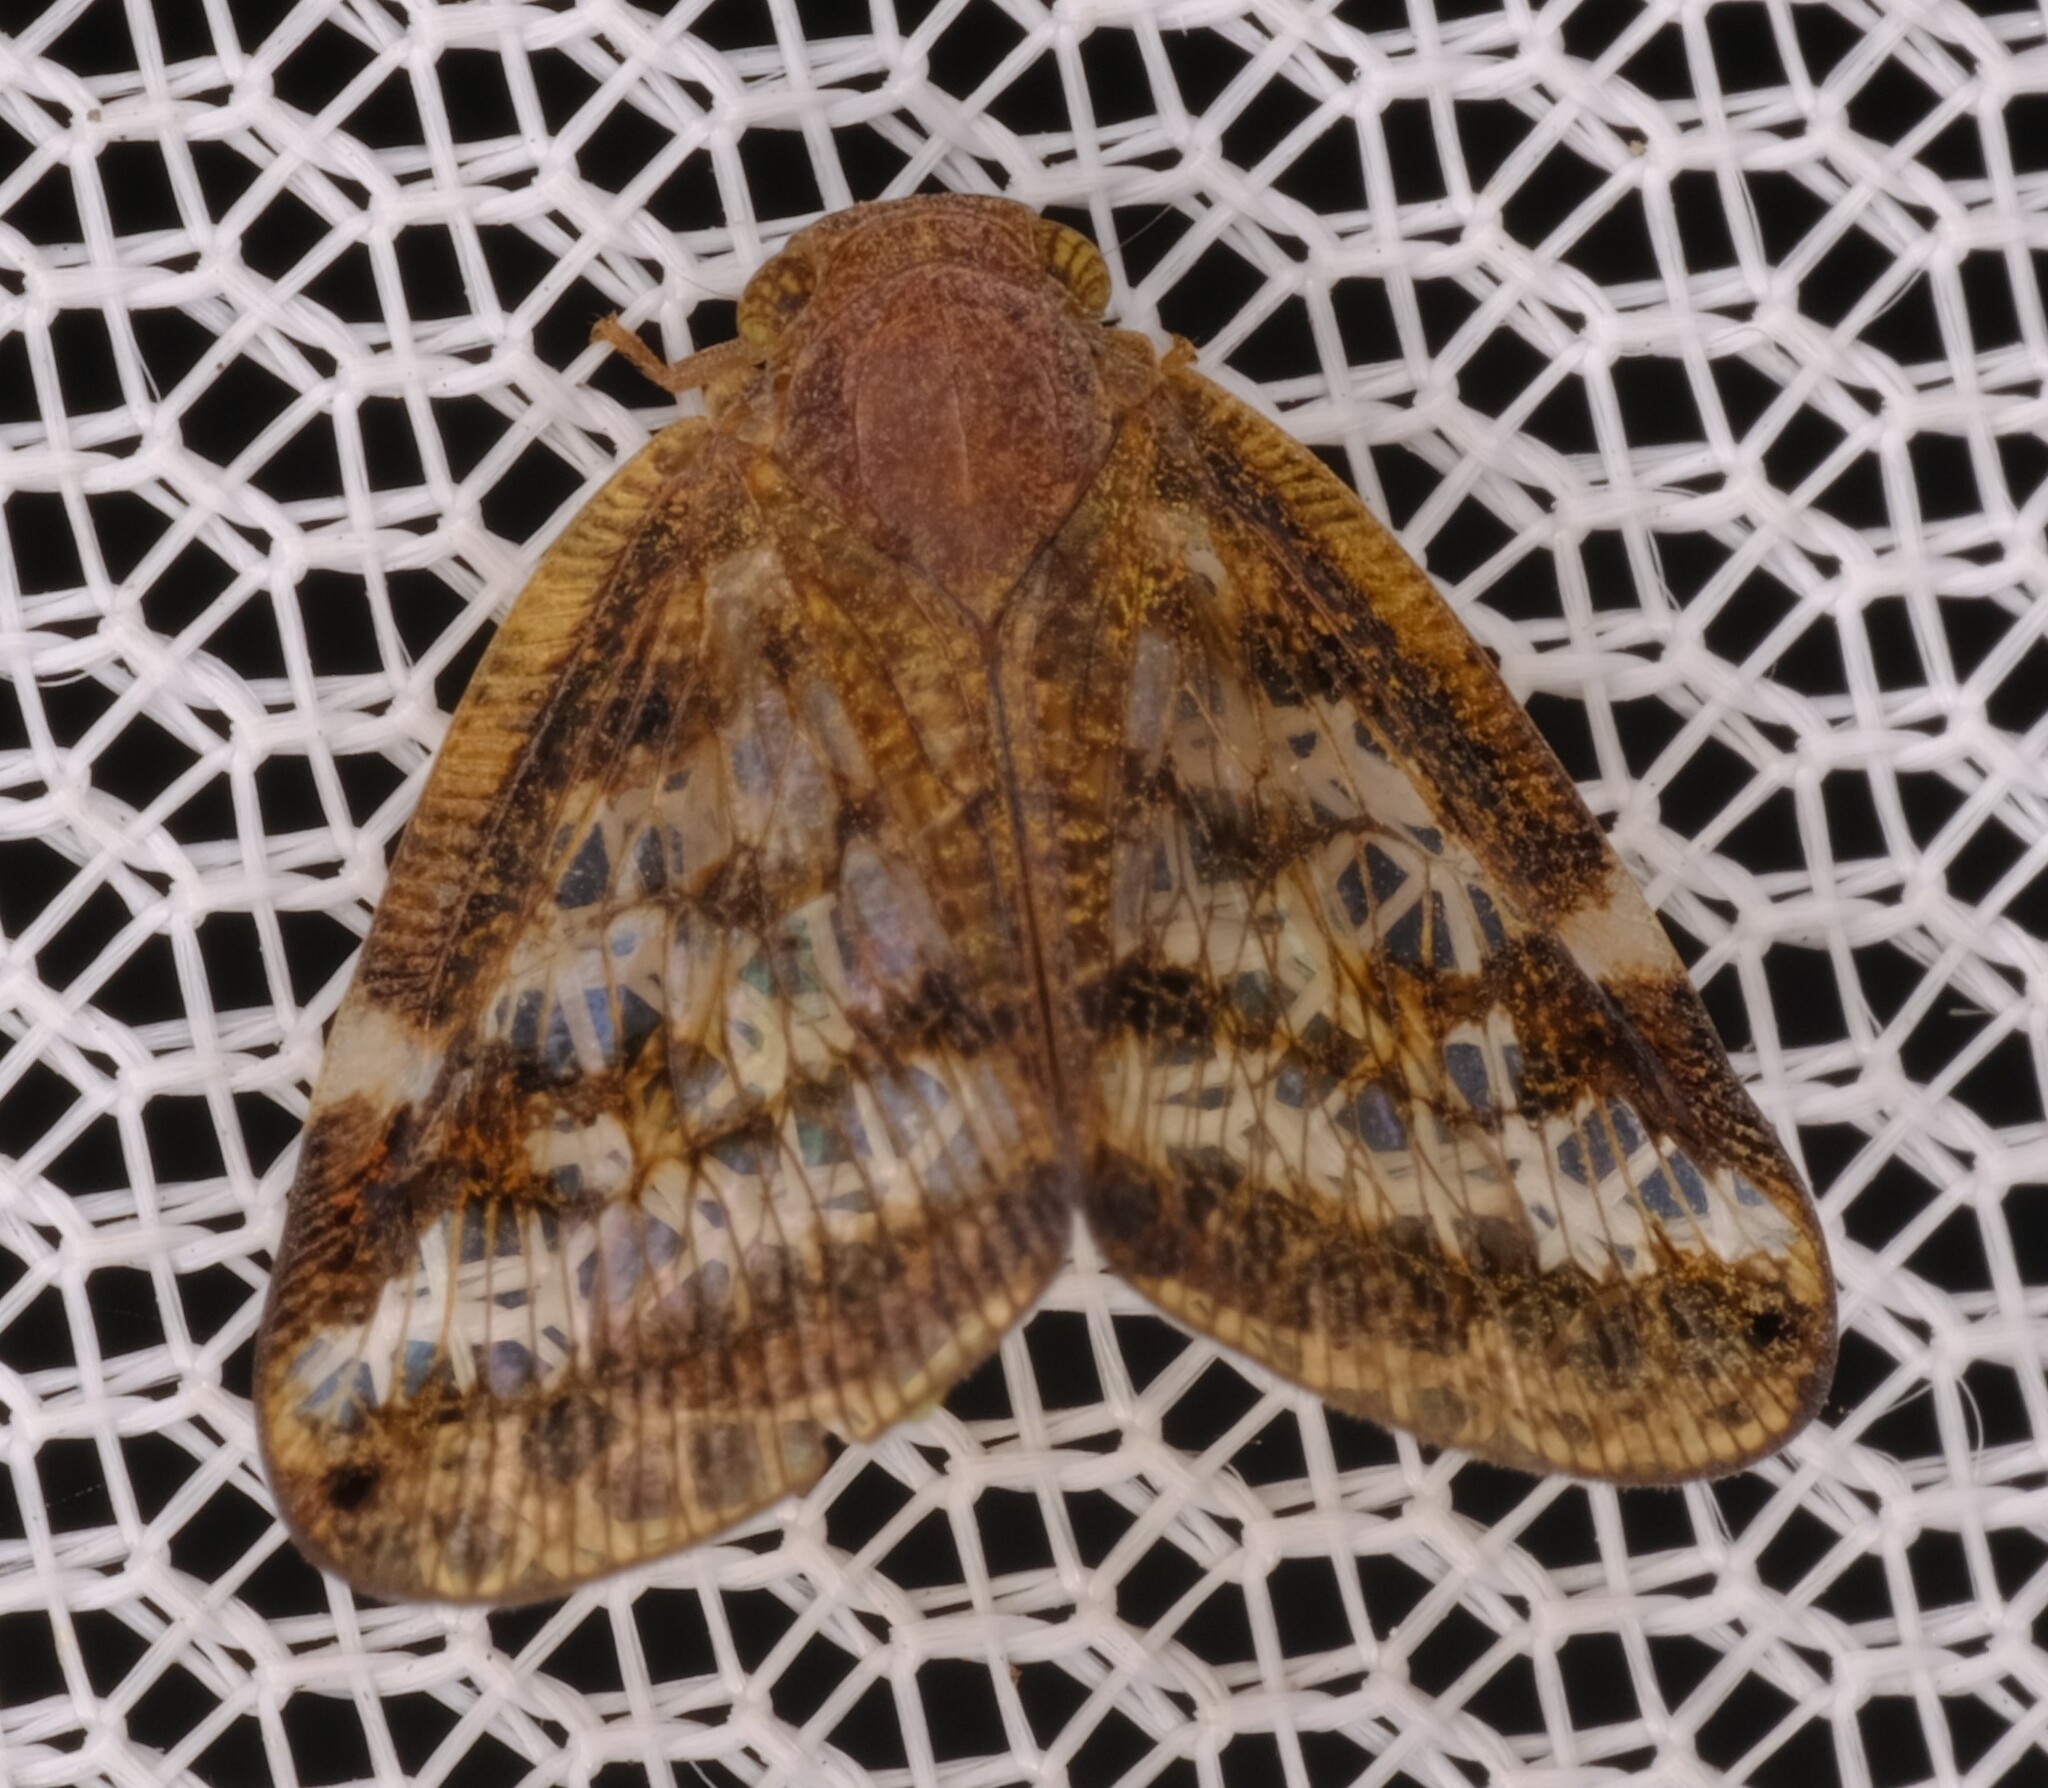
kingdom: Animalia
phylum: Arthropoda
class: Insecta
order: Hemiptera
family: Ricaniidae
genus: Scolypopa
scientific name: Scolypopa australis
